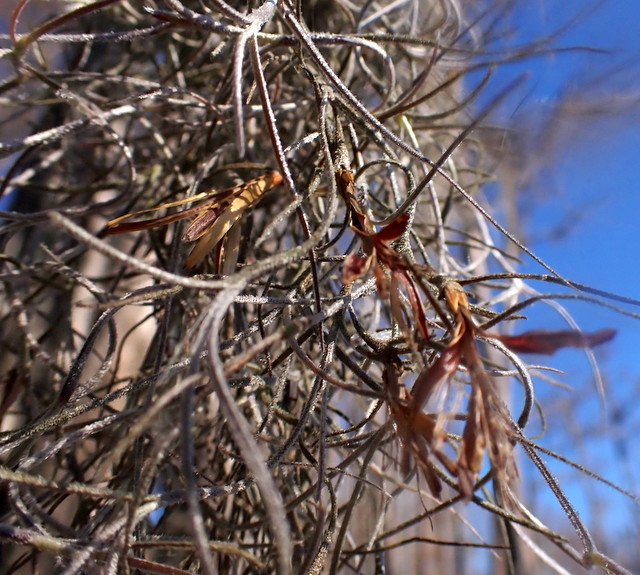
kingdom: Plantae
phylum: Tracheophyta
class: Liliopsida
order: Poales
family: Bromeliaceae
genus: Tillandsia
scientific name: Tillandsia usneoides
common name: Spanish moss
